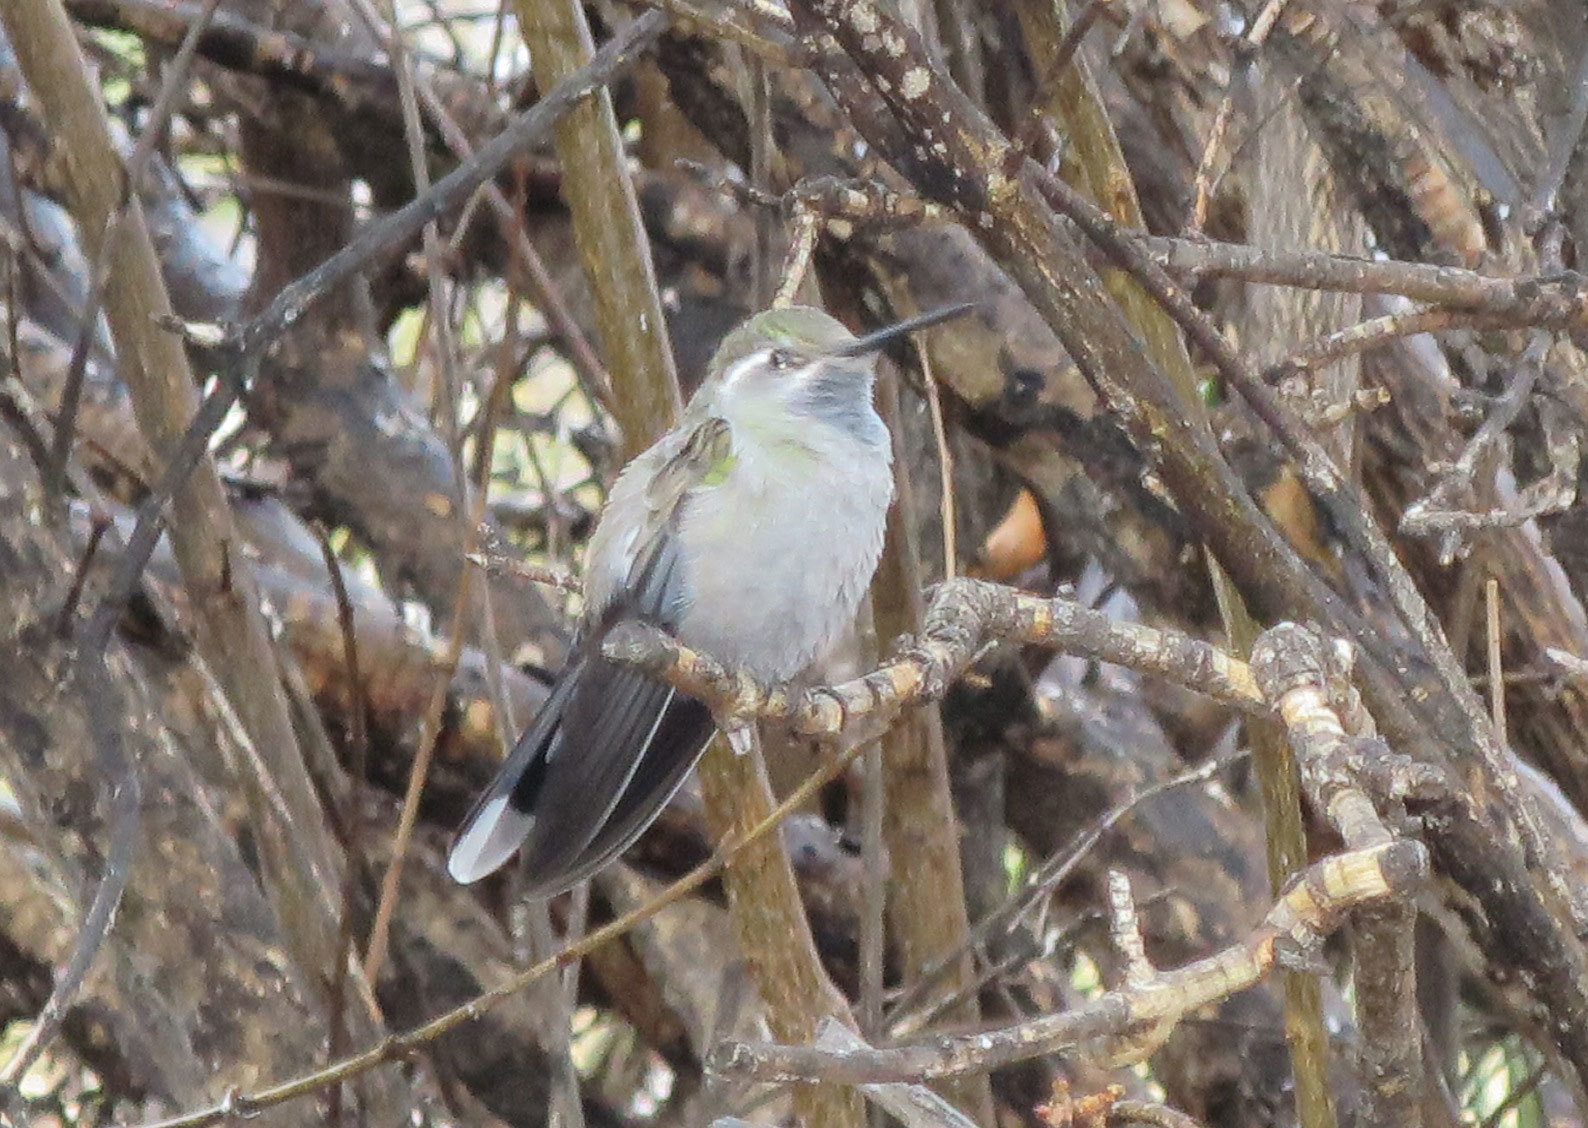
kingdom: Animalia
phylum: Chordata
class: Aves
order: Apodiformes
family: Trochilidae
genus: Lampornis
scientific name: Lampornis clemenciae
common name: Blue-throated mountaingem
